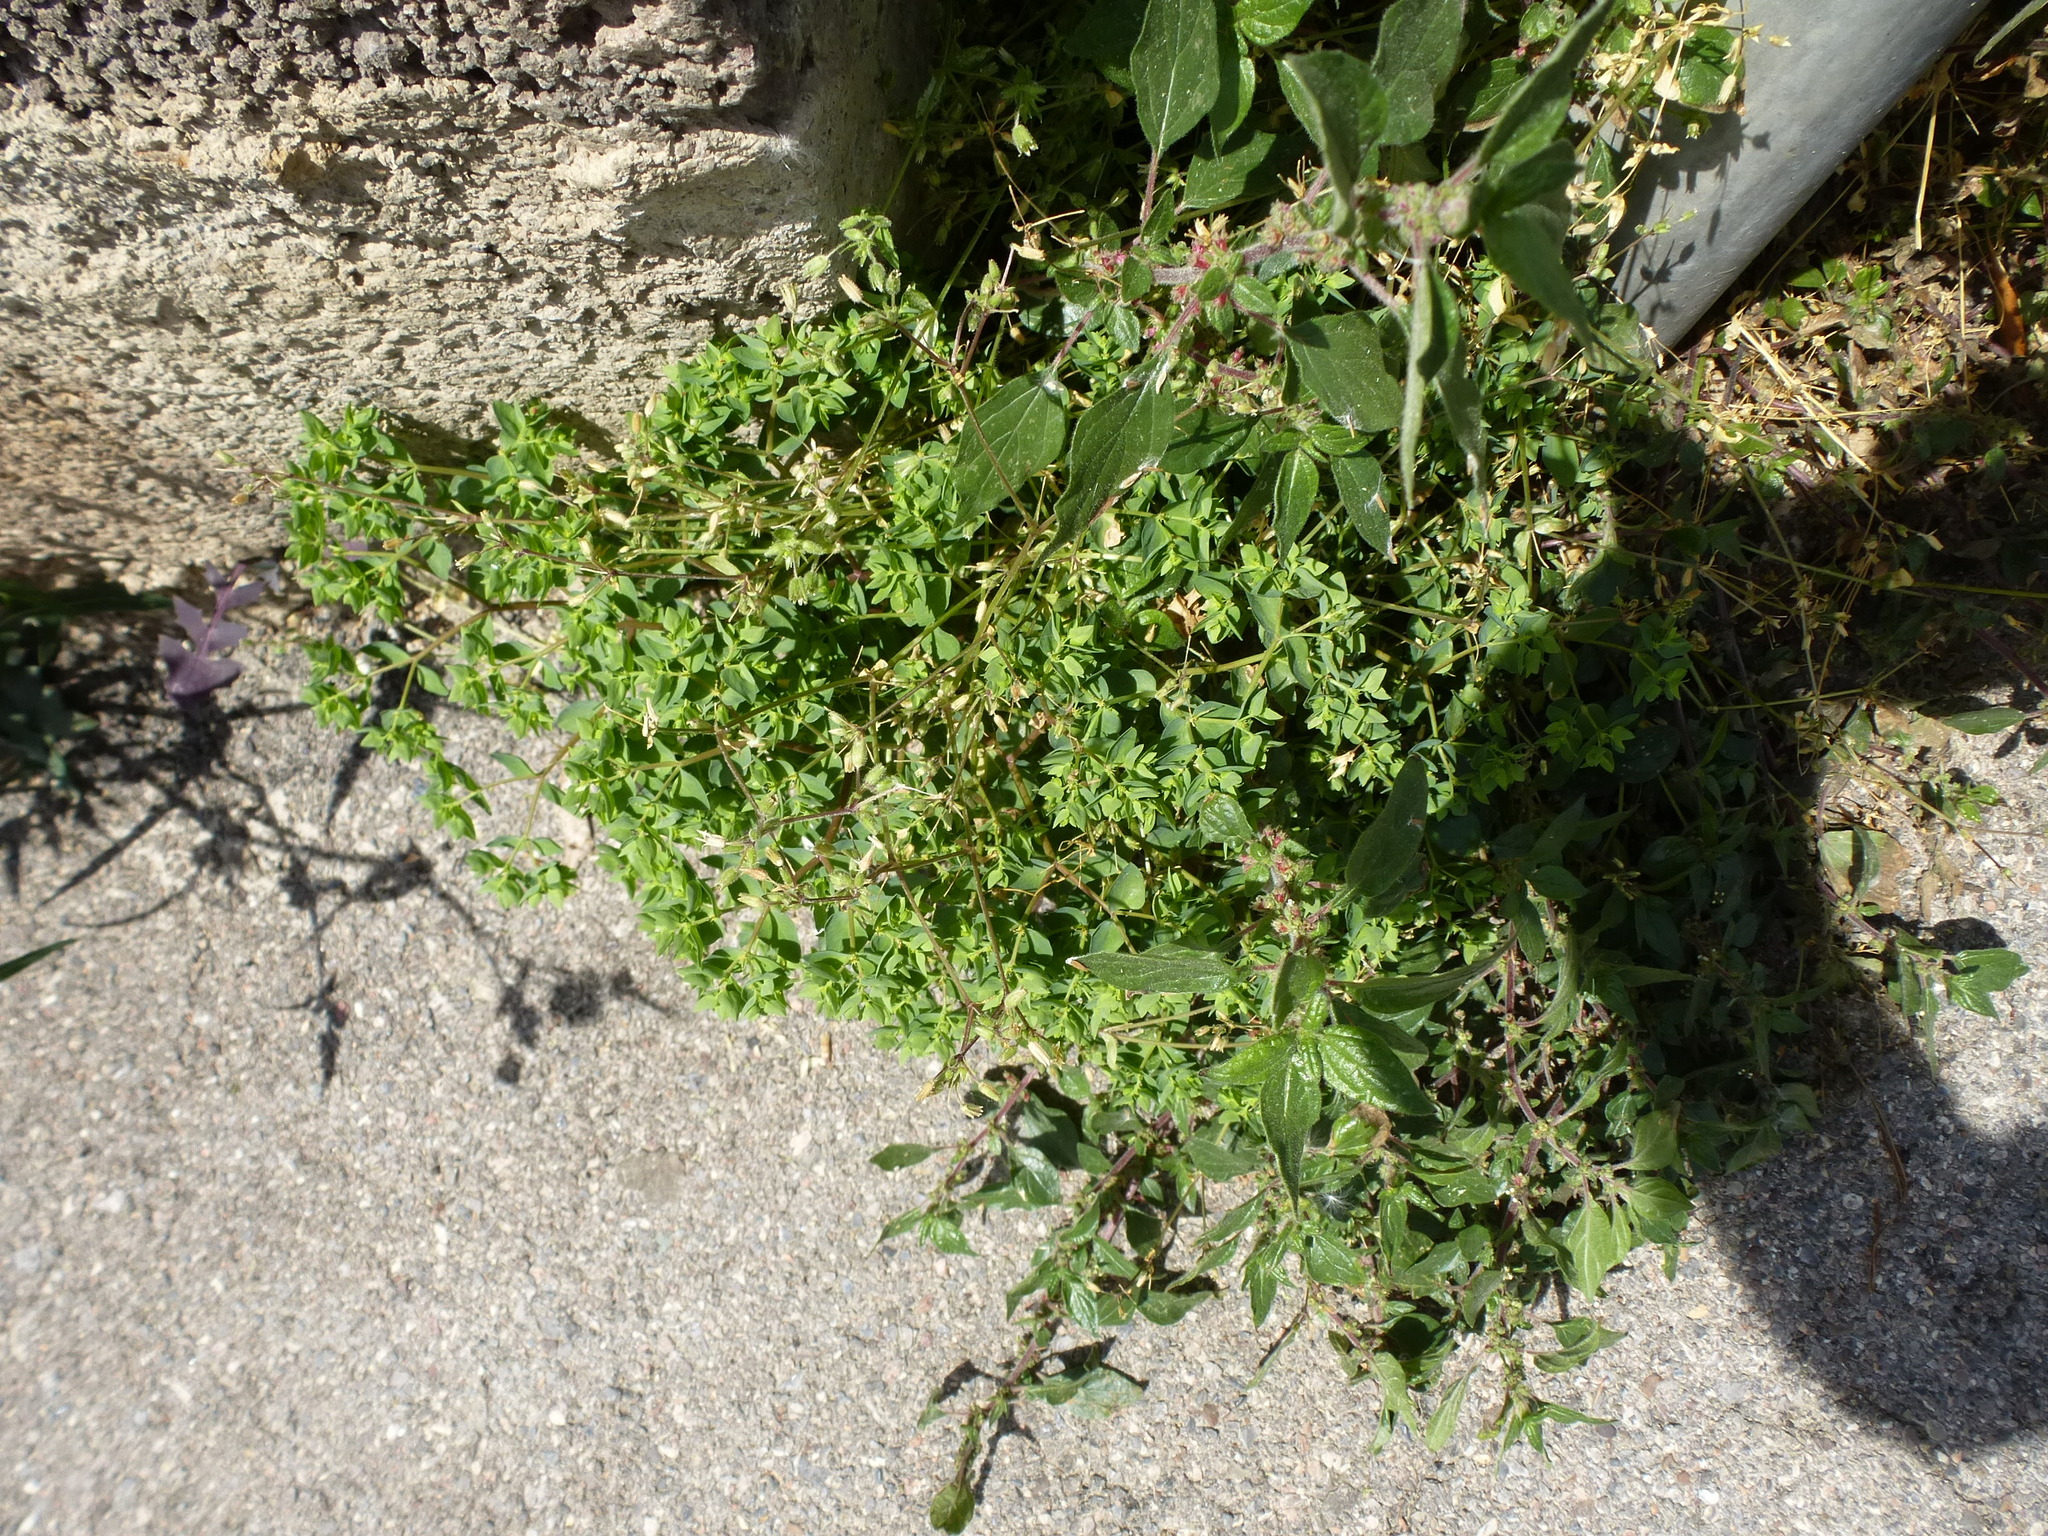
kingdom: Plantae
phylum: Tracheophyta
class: Magnoliopsida
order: Malpighiales
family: Euphorbiaceae
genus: Euphorbia
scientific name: Euphorbia peplus
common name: Petty spurge
